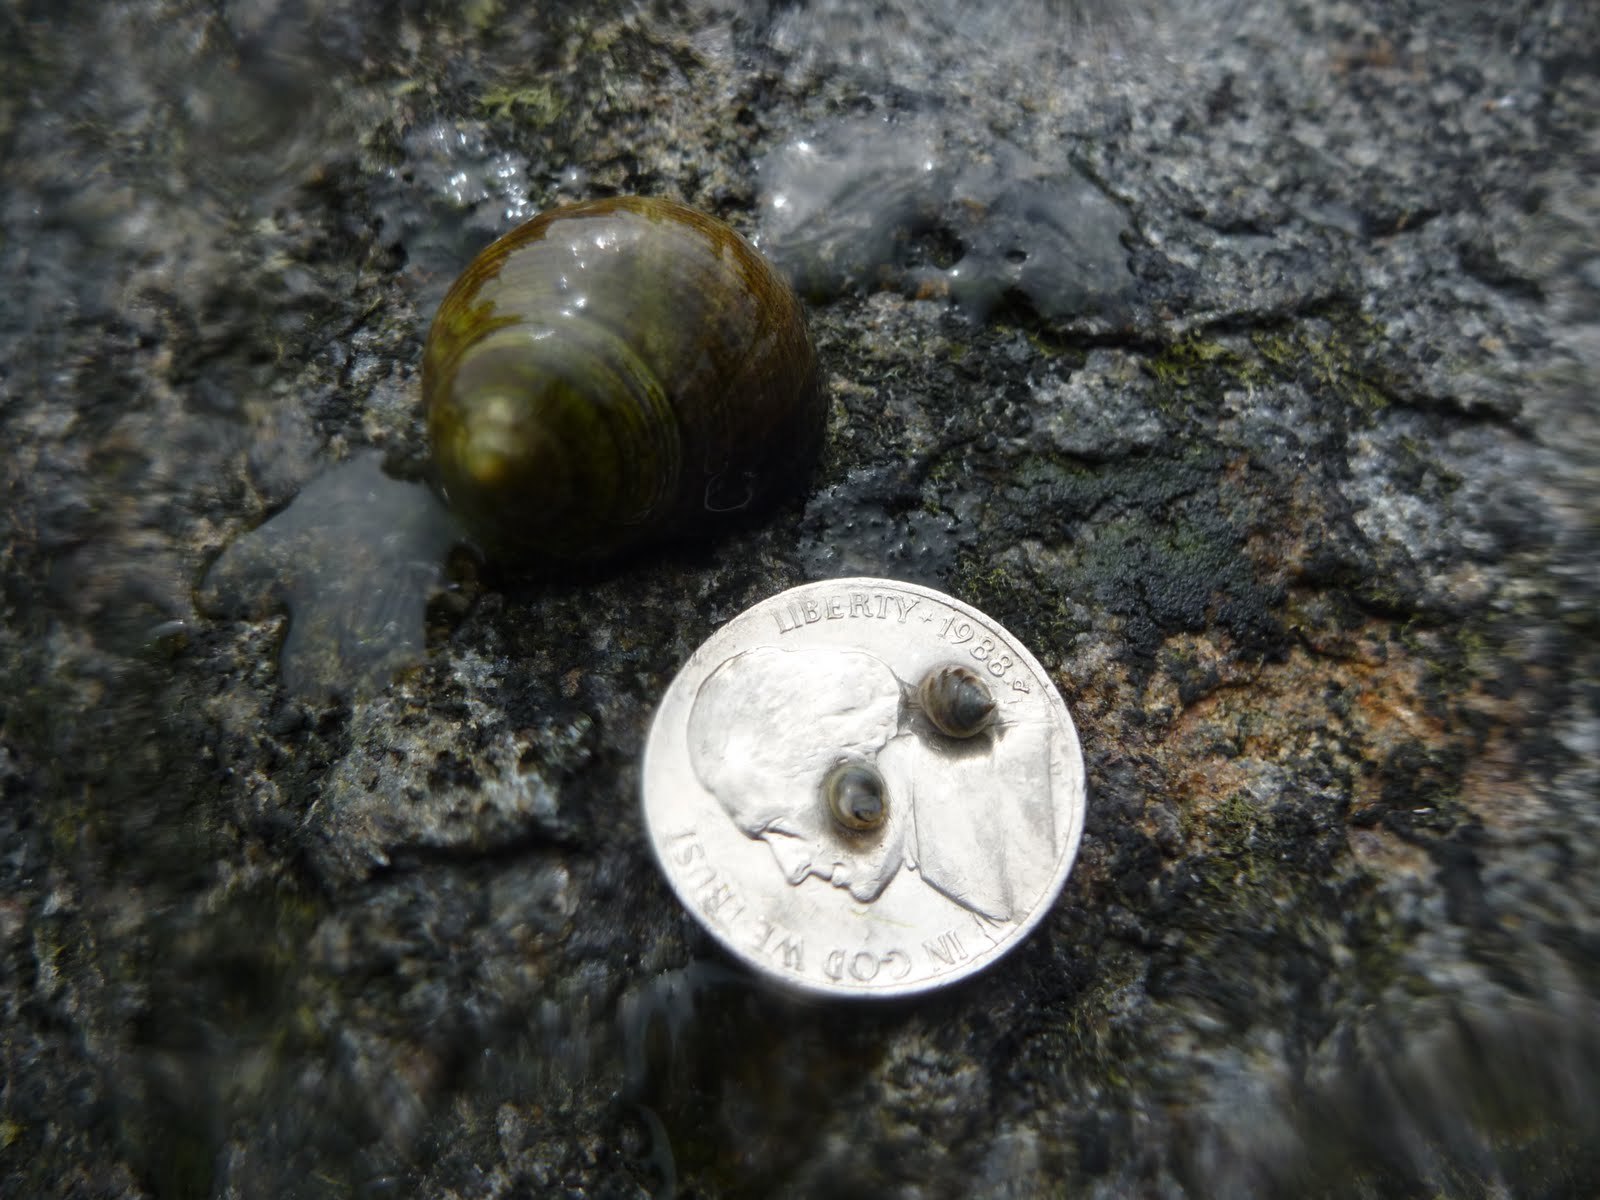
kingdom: Animalia
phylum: Mollusca
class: Gastropoda
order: Littorinimorpha
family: Littorinidae
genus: Littorina
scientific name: Littorina littorea
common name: Common periwinkle
